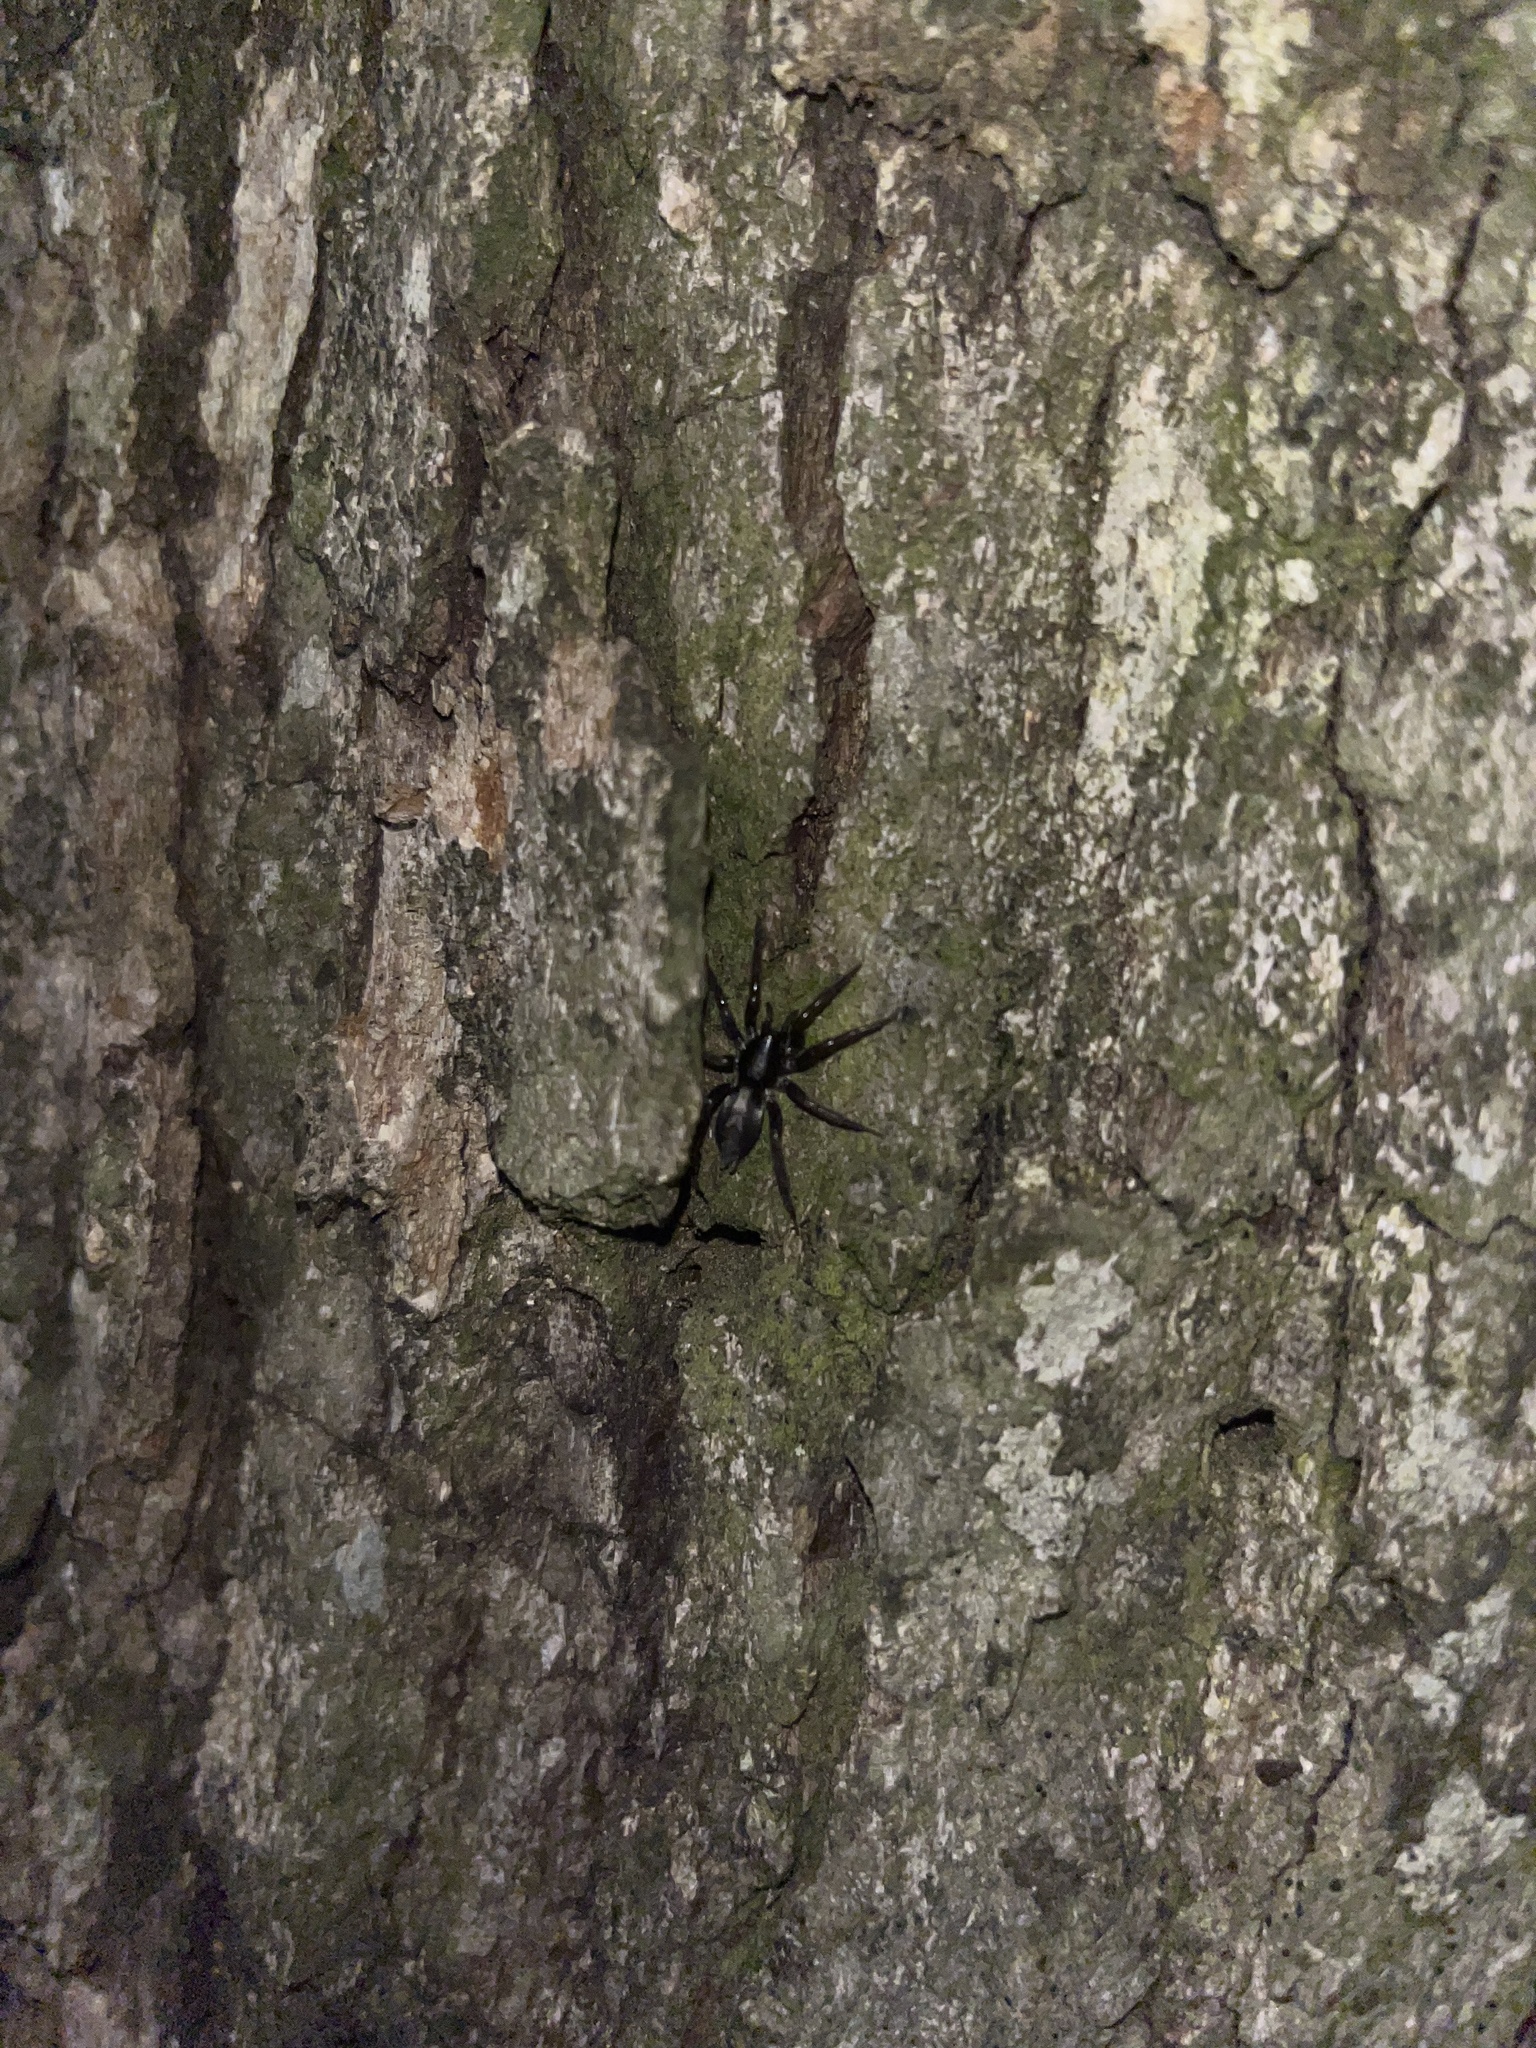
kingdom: Animalia
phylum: Arthropoda
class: Arachnida
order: Araneae
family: Gnaphosidae
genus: Herpyllus
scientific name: Herpyllus ecclesiasticus
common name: Eastern parson spider
